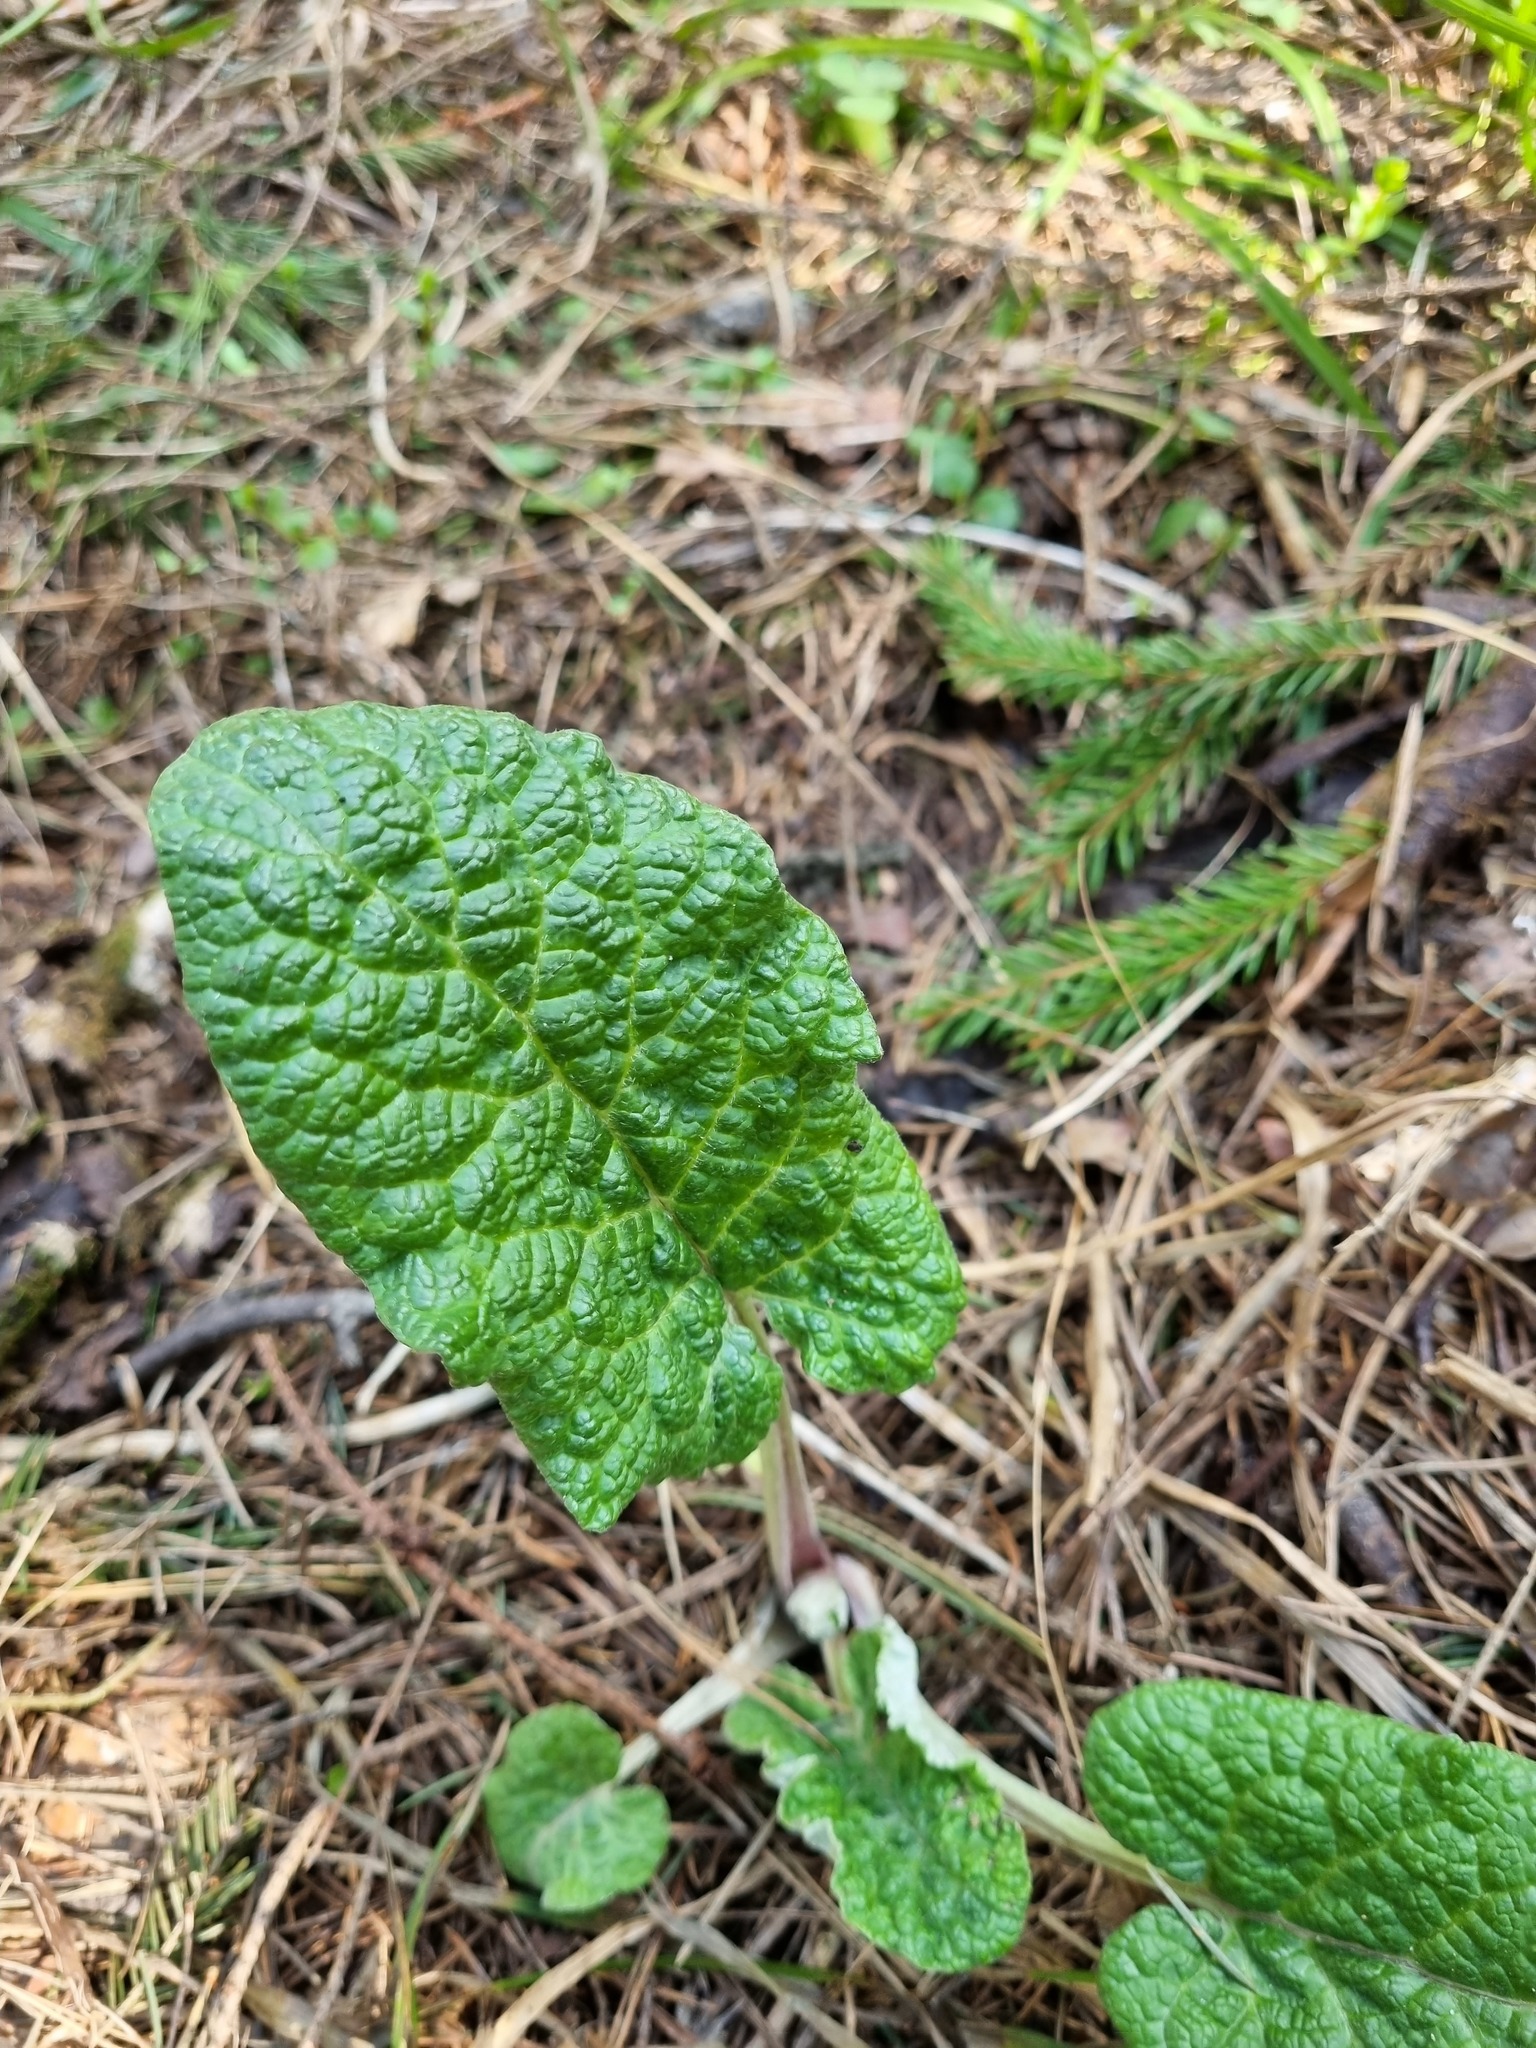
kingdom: Plantae
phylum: Tracheophyta
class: Magnoliopsida
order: Asterales
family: Asteraceae
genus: Arctium
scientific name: Arctium
